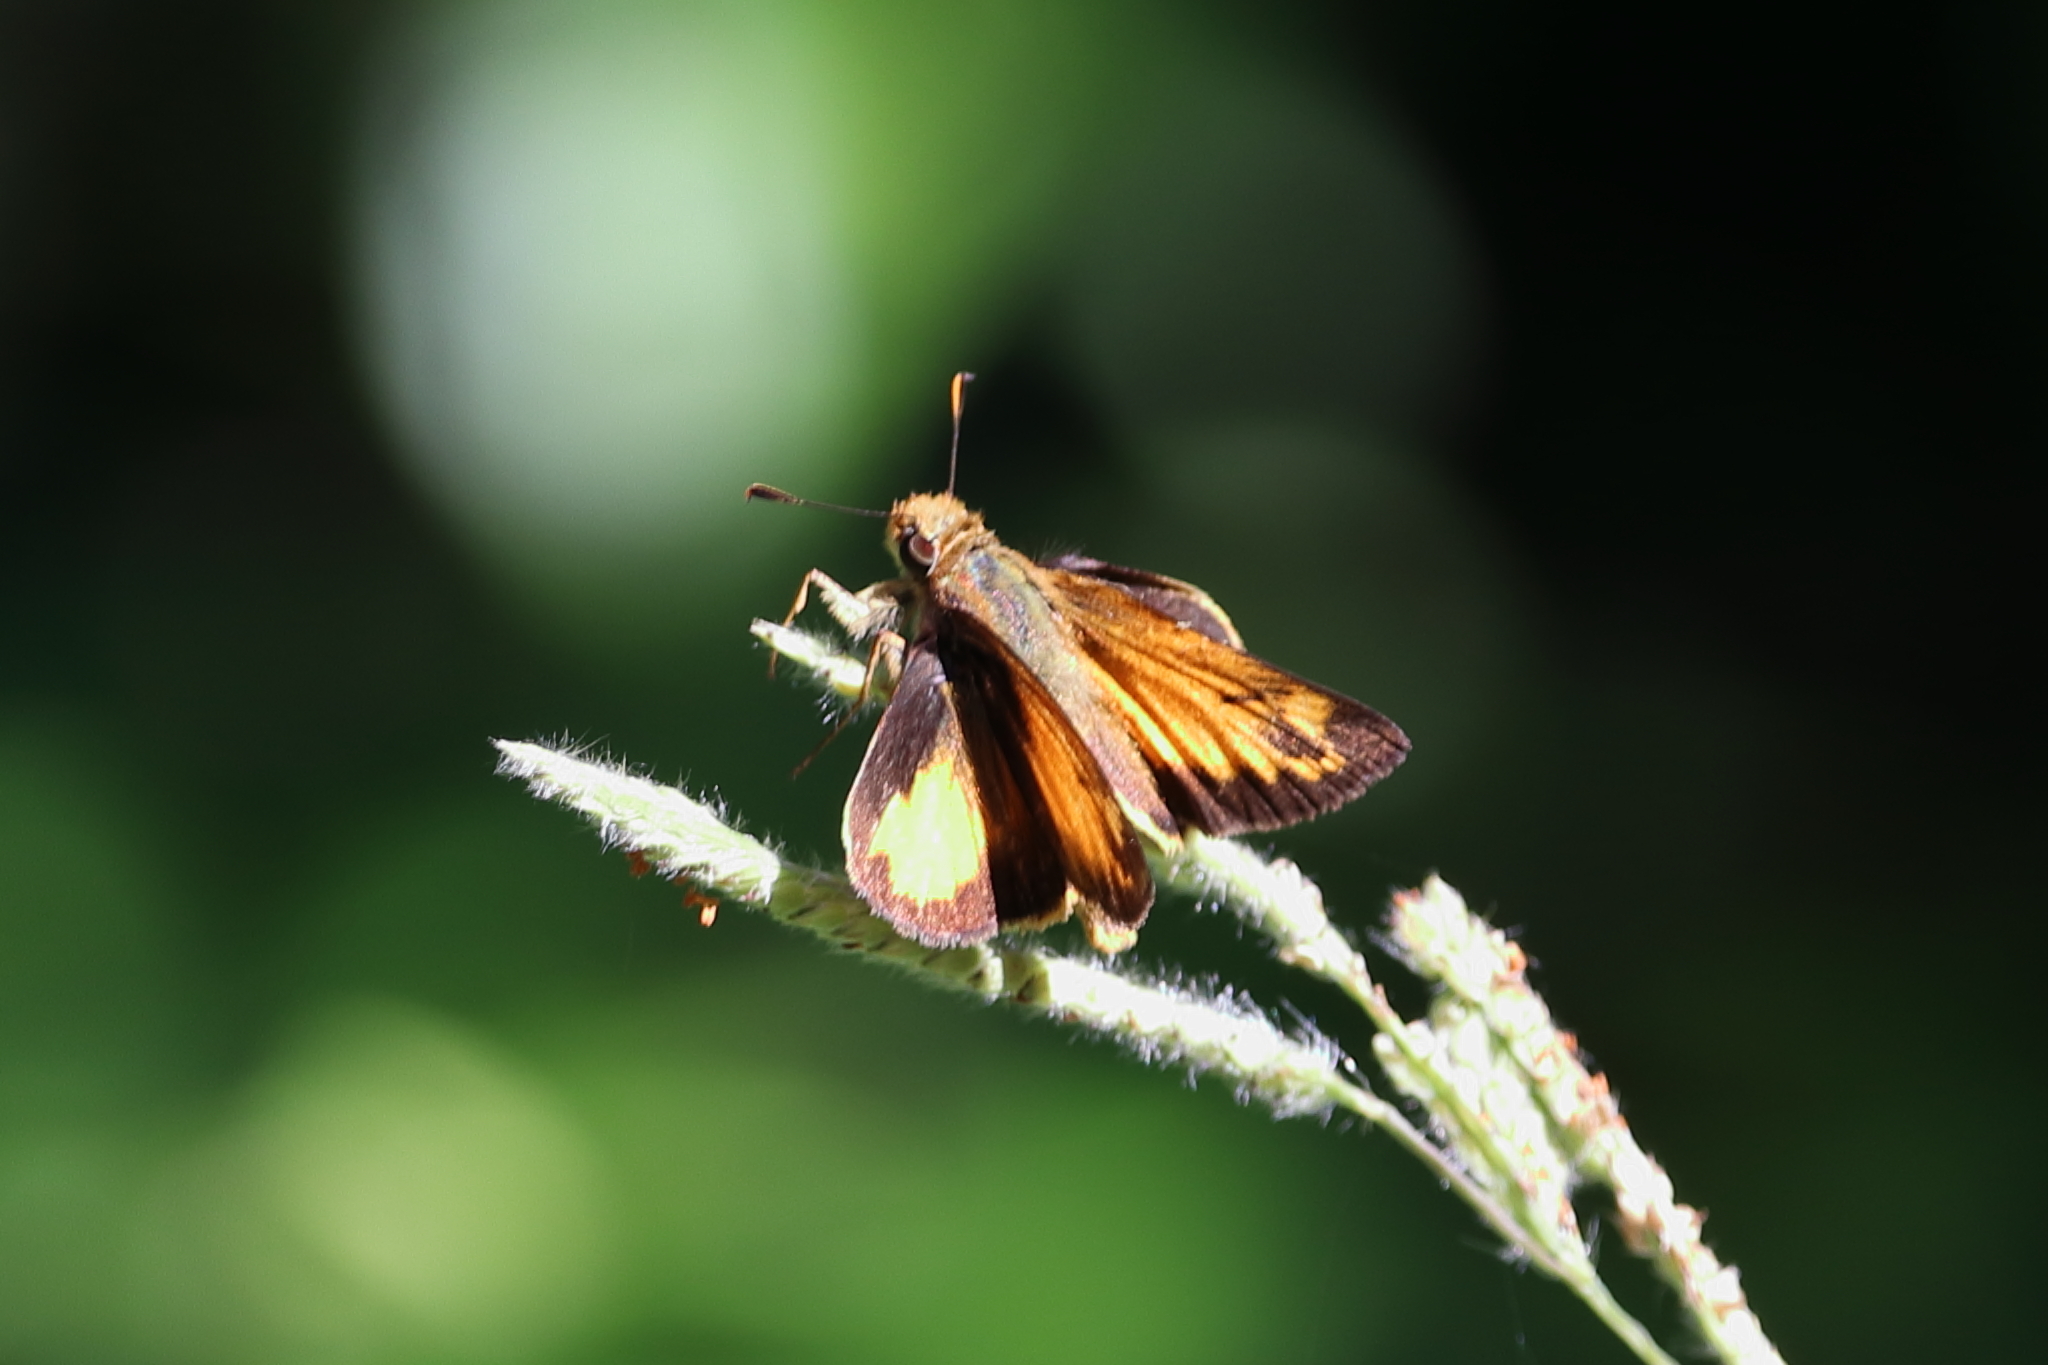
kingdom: Animalia
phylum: Arthropoda
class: Insecta
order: Lepidoptera
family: Hesperiidae
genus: Lon
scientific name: Lon zabulon
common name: Zabulon skipper
